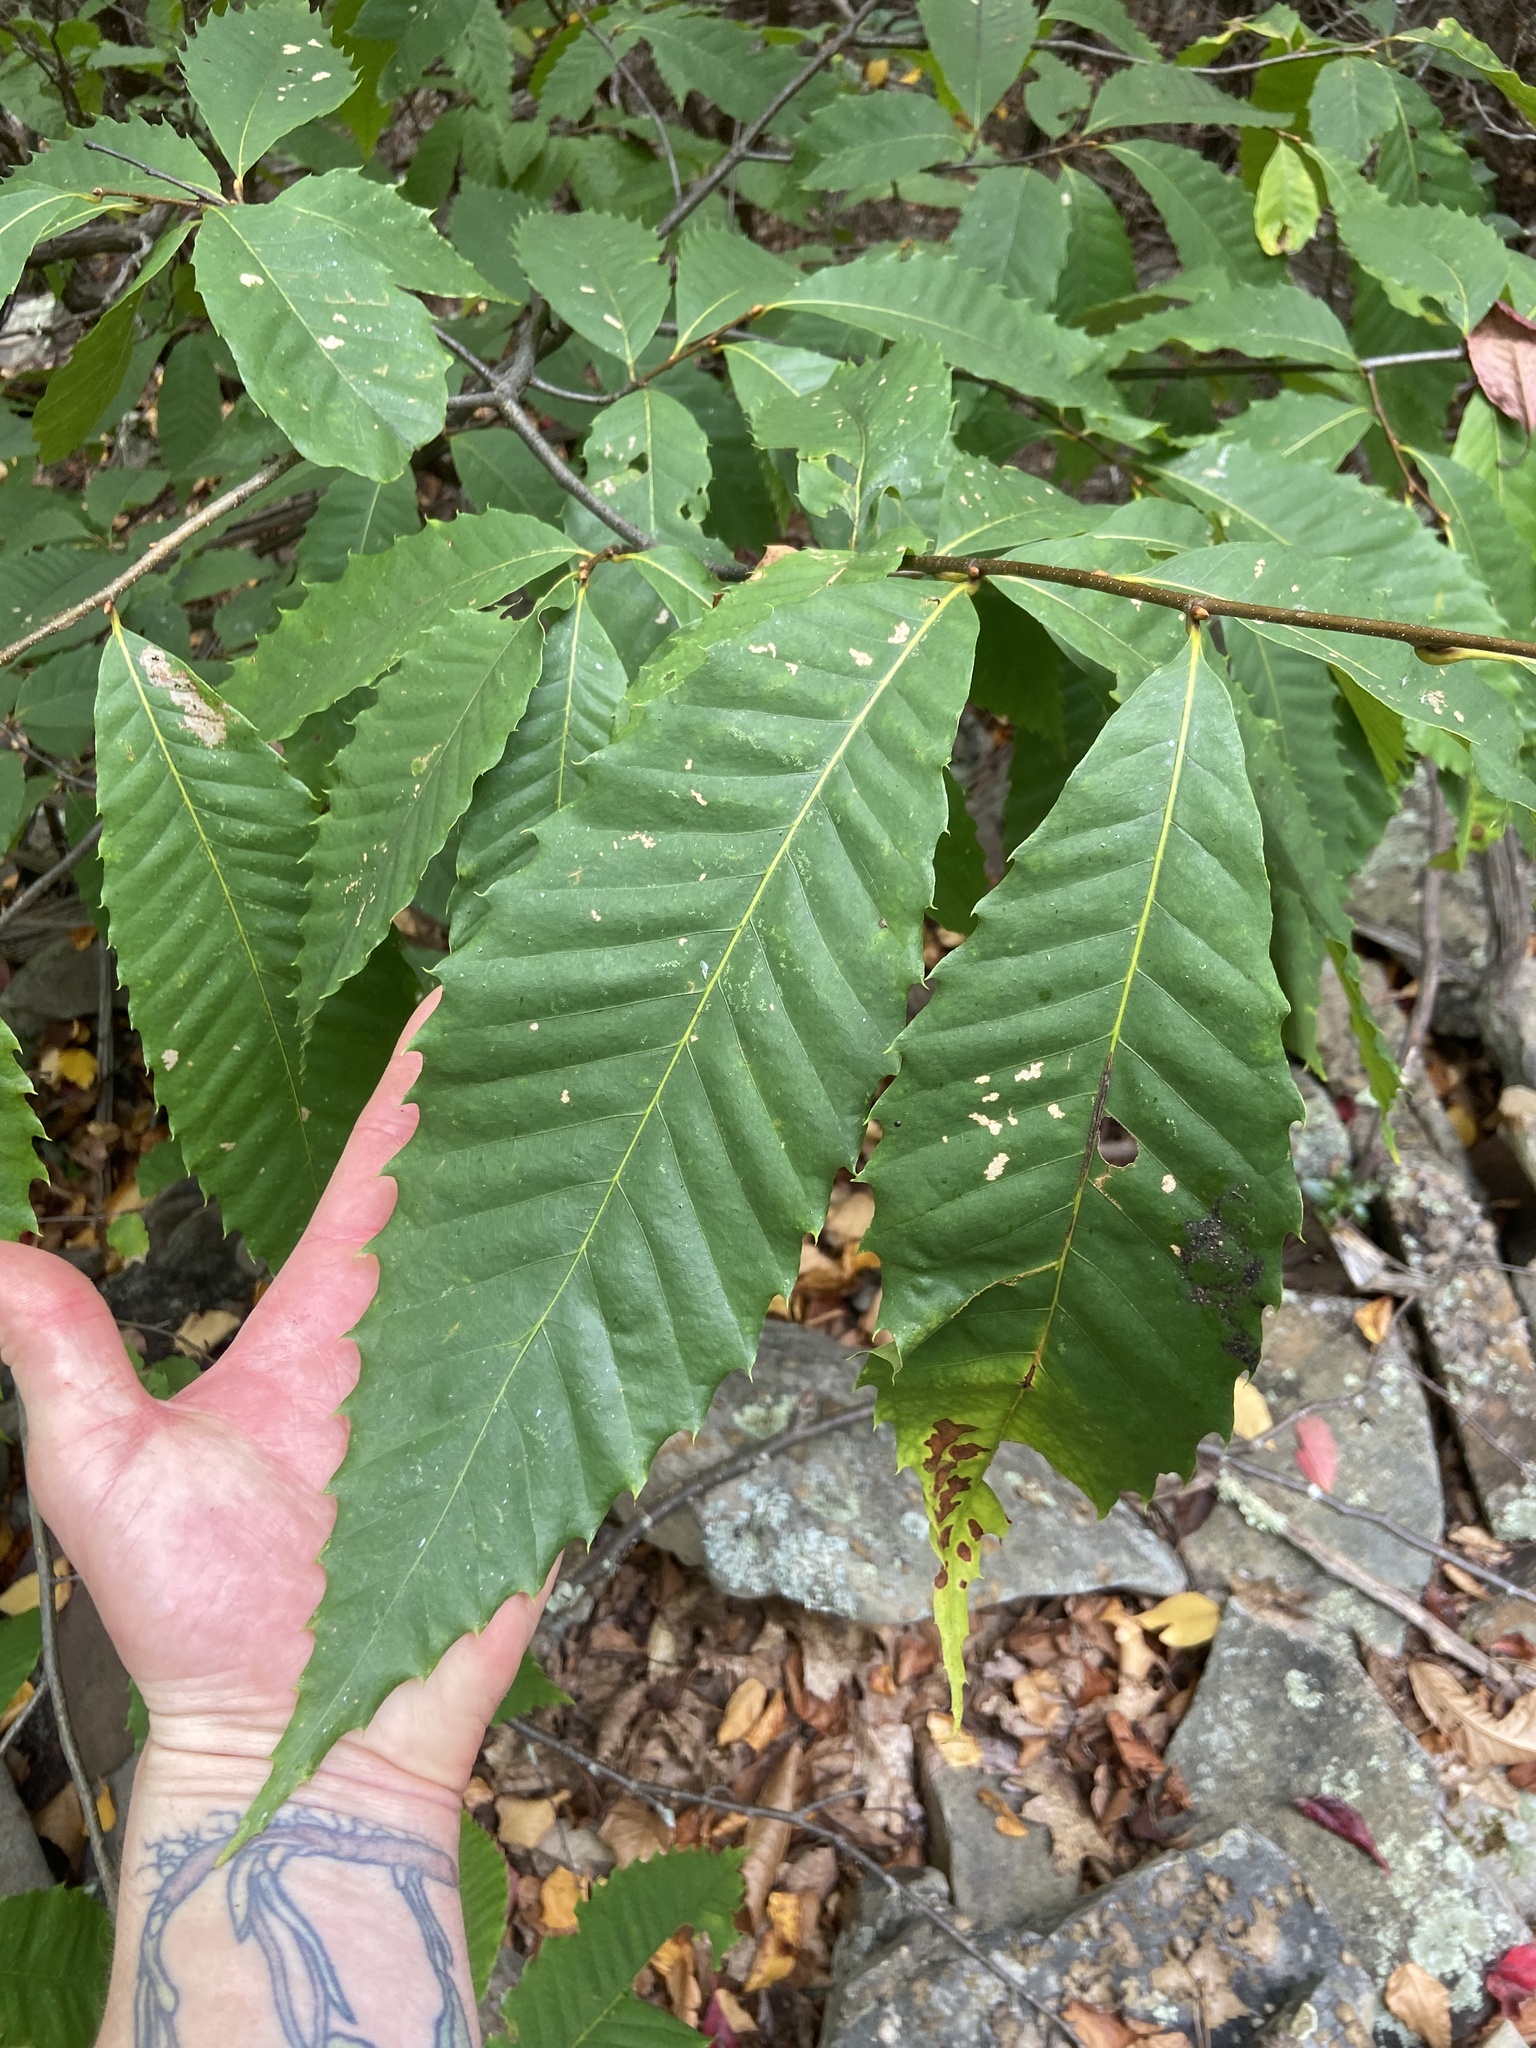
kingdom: Plantae
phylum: Tracheophyta
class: Magnoliopsida
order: Fagales
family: Fagaceae
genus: Castanea
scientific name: Castanea dentata
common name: American chestnut
